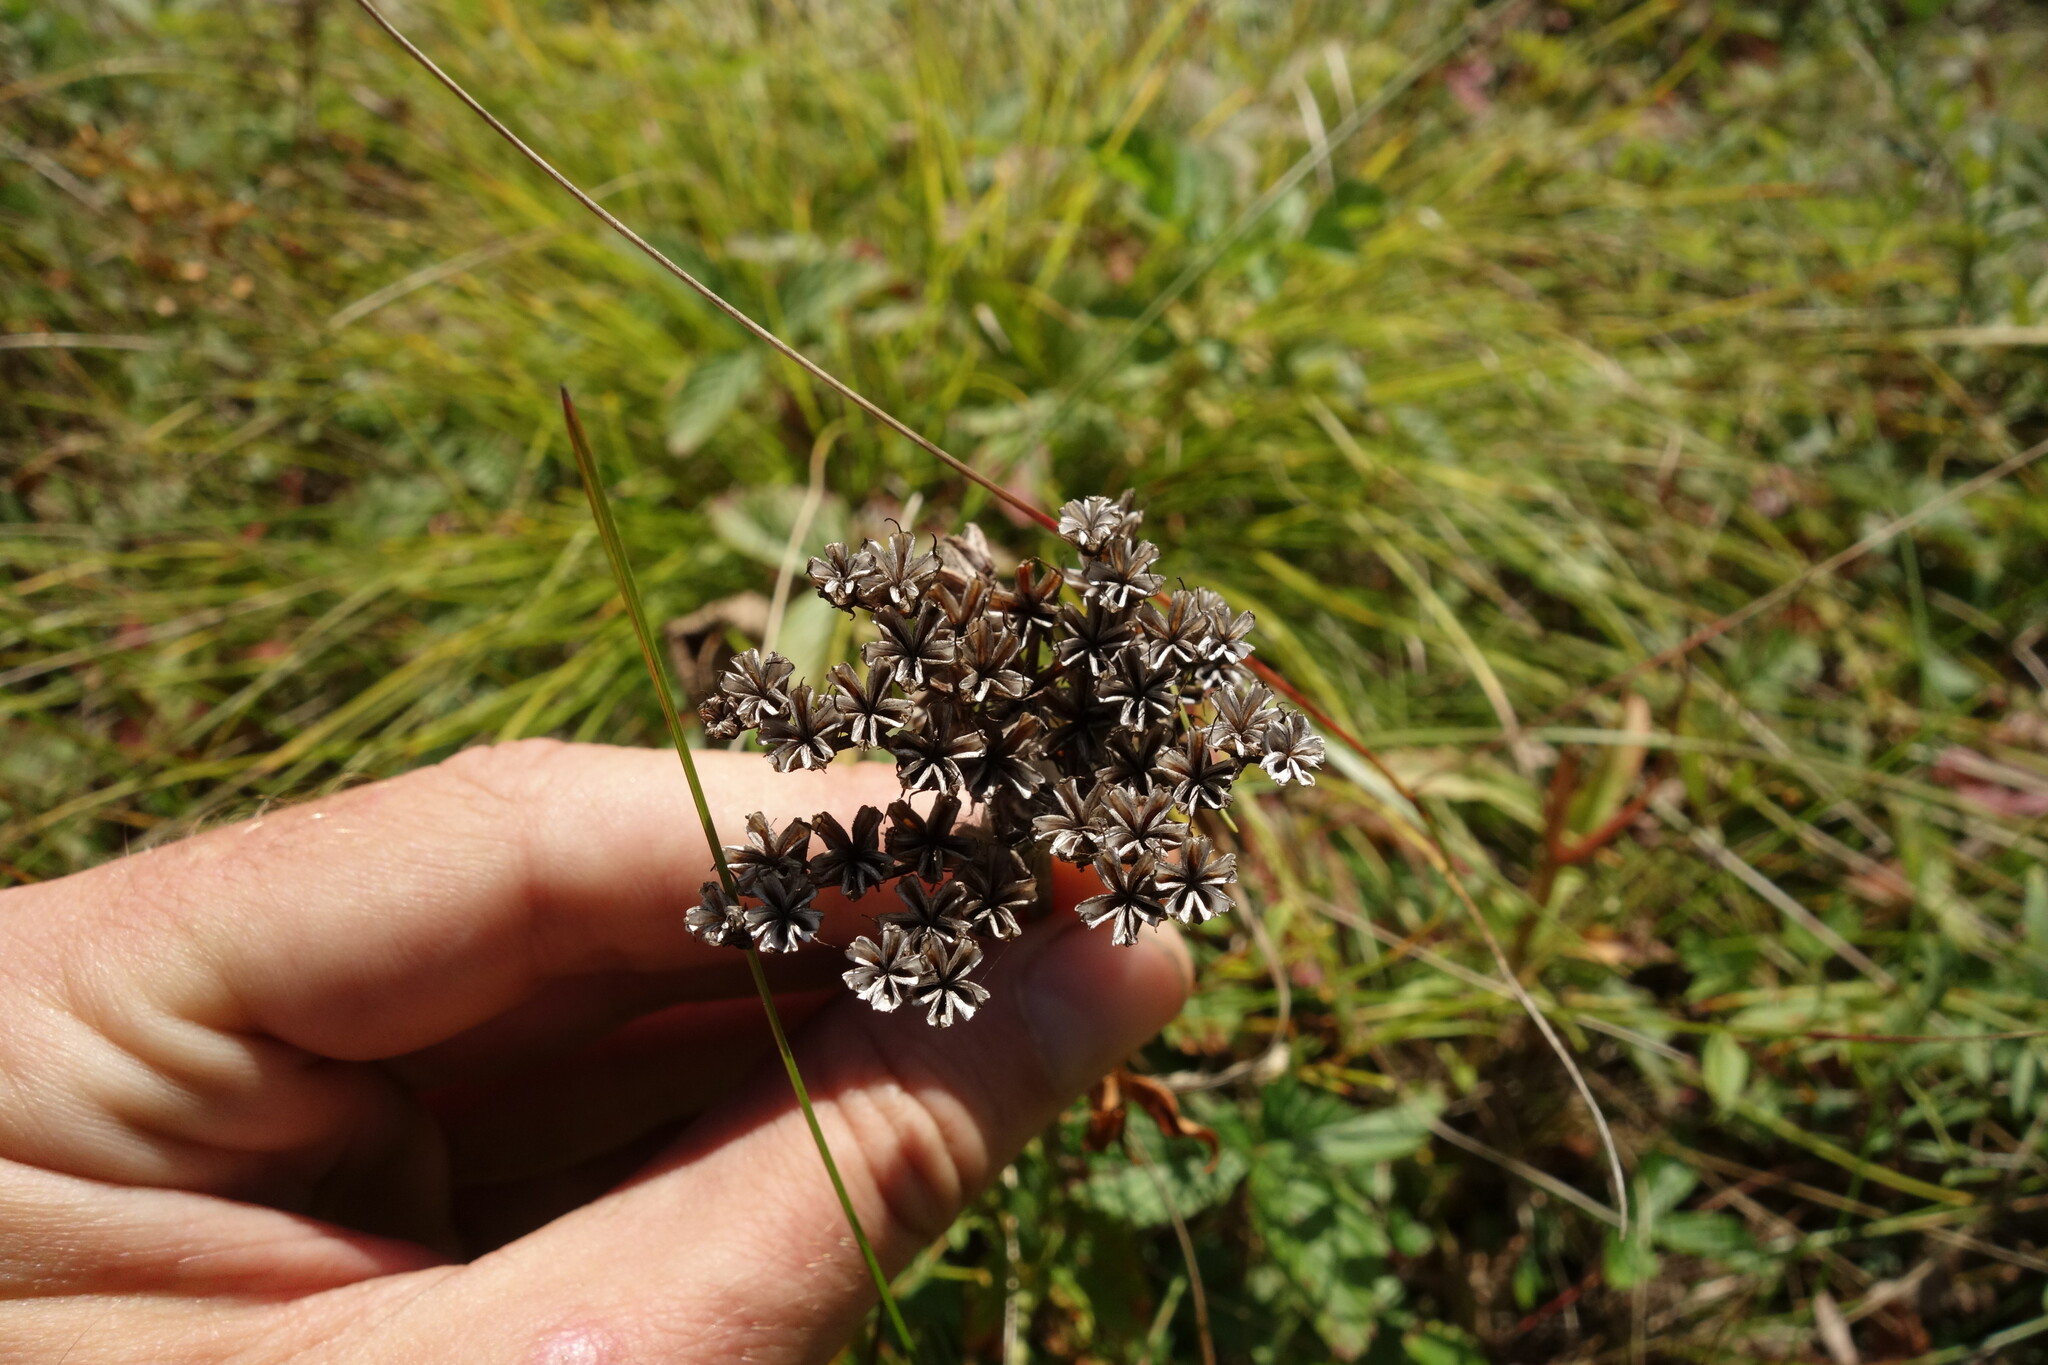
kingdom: Plantae
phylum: Tracheophyta
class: Magnoliopsida
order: Saxifragales
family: Crassulaceae
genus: Phedimus
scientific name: Phedimus aizoon
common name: Orpin aizoon
